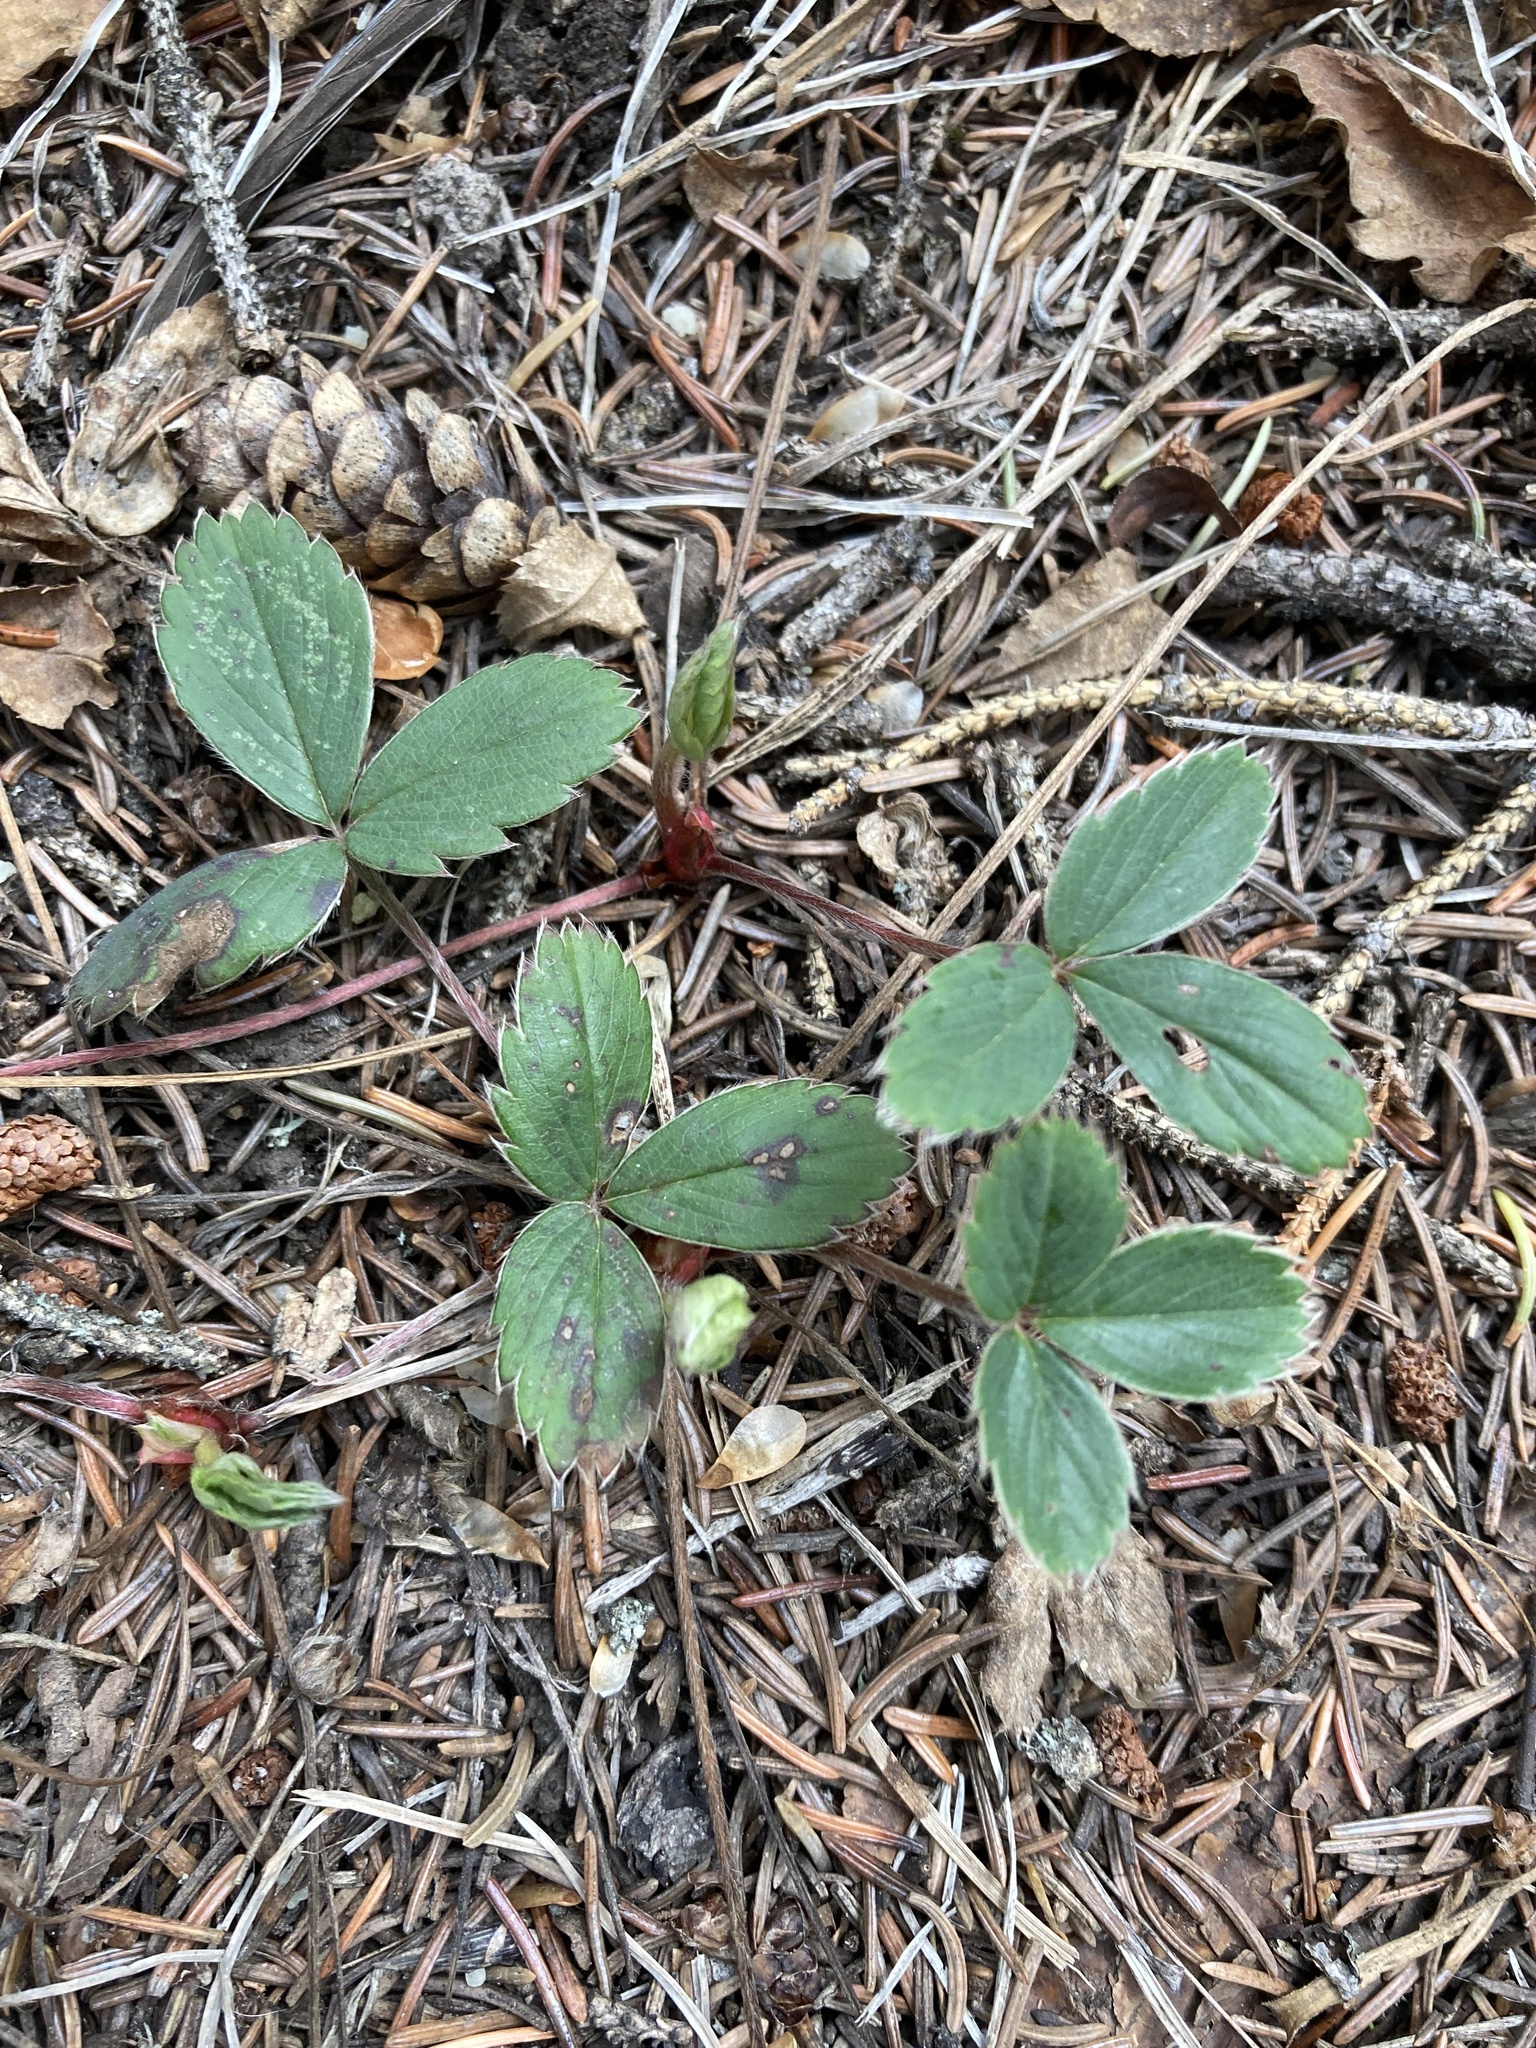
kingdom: Plantae
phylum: Tracheophyta
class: Magnoliopsida
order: Rosales
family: Rosaceae
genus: Fragaria
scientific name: Fragaria virginiana
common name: Thickleaved wild strawberry
